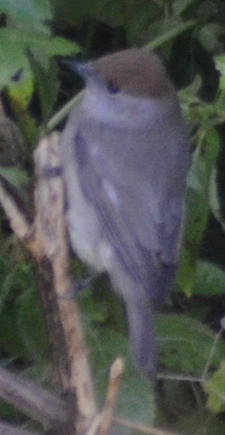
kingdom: Animalia
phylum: Chordata
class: Aves
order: Passeriformes
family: Sylviidae
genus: Sylvia
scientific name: Sylvia atricapilla
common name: Eurasian blackcap
